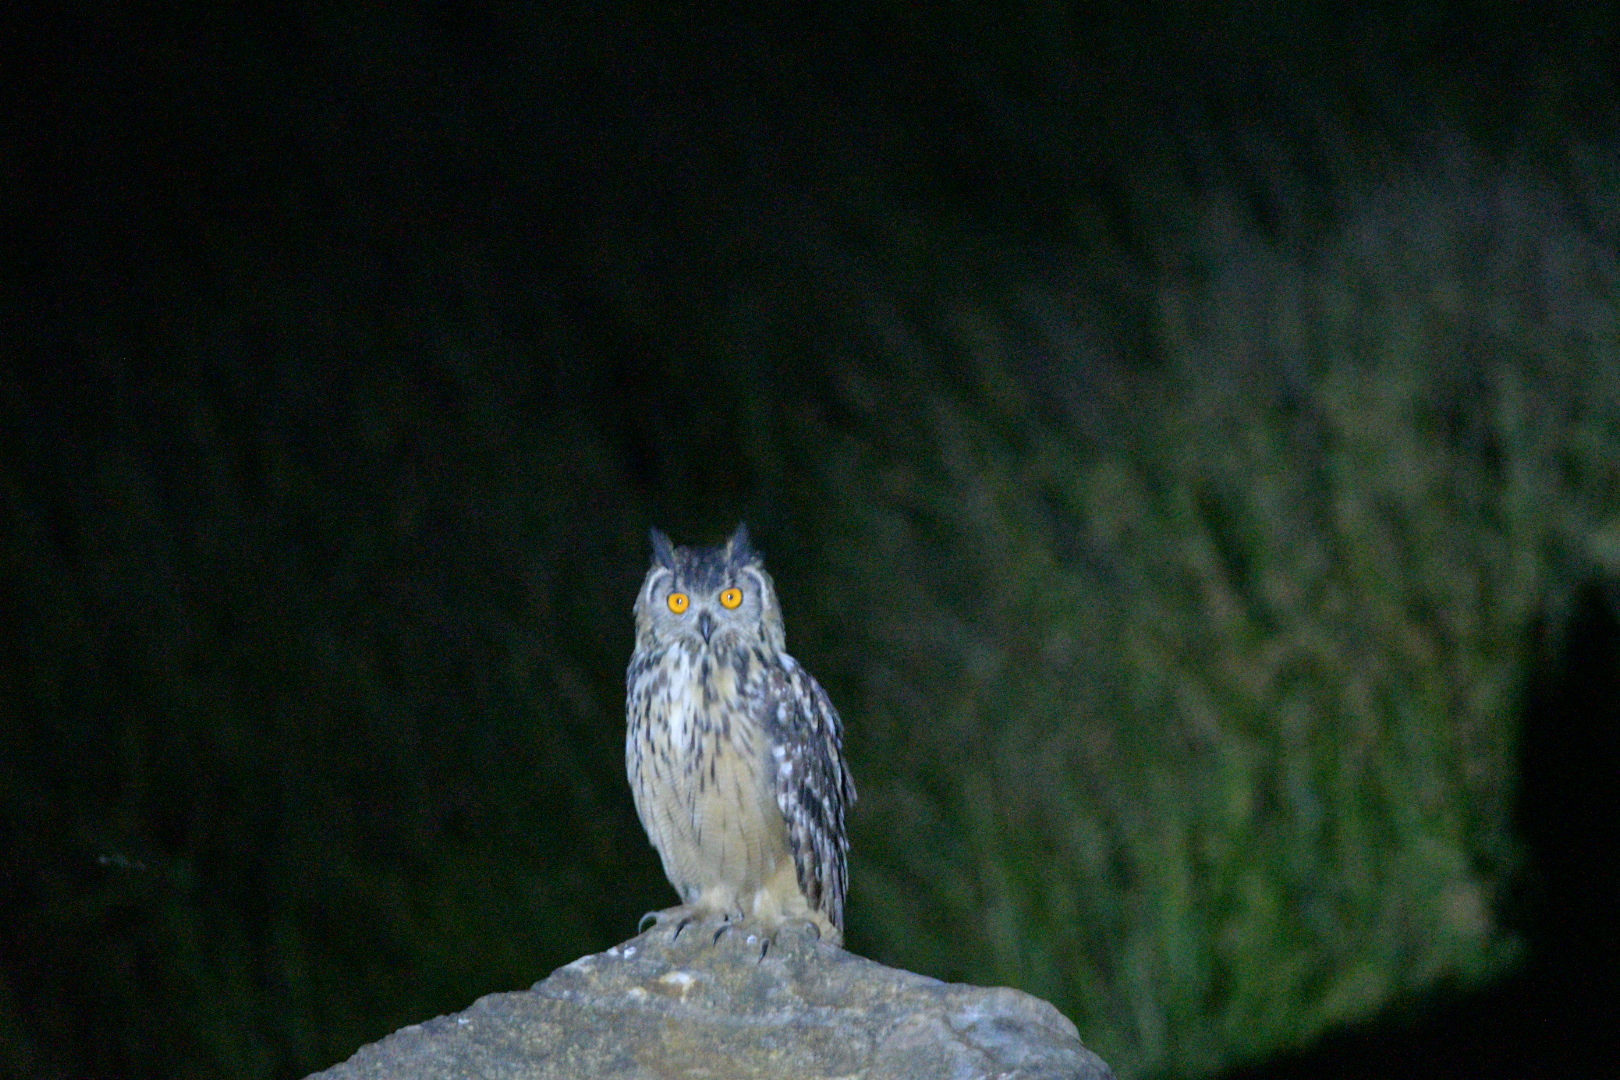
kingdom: Animalia
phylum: Chordata
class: Aves
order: Strigiformes
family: Strigidae
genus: Bubo
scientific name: Bubo bengalensis
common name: Indian eagle-owl
